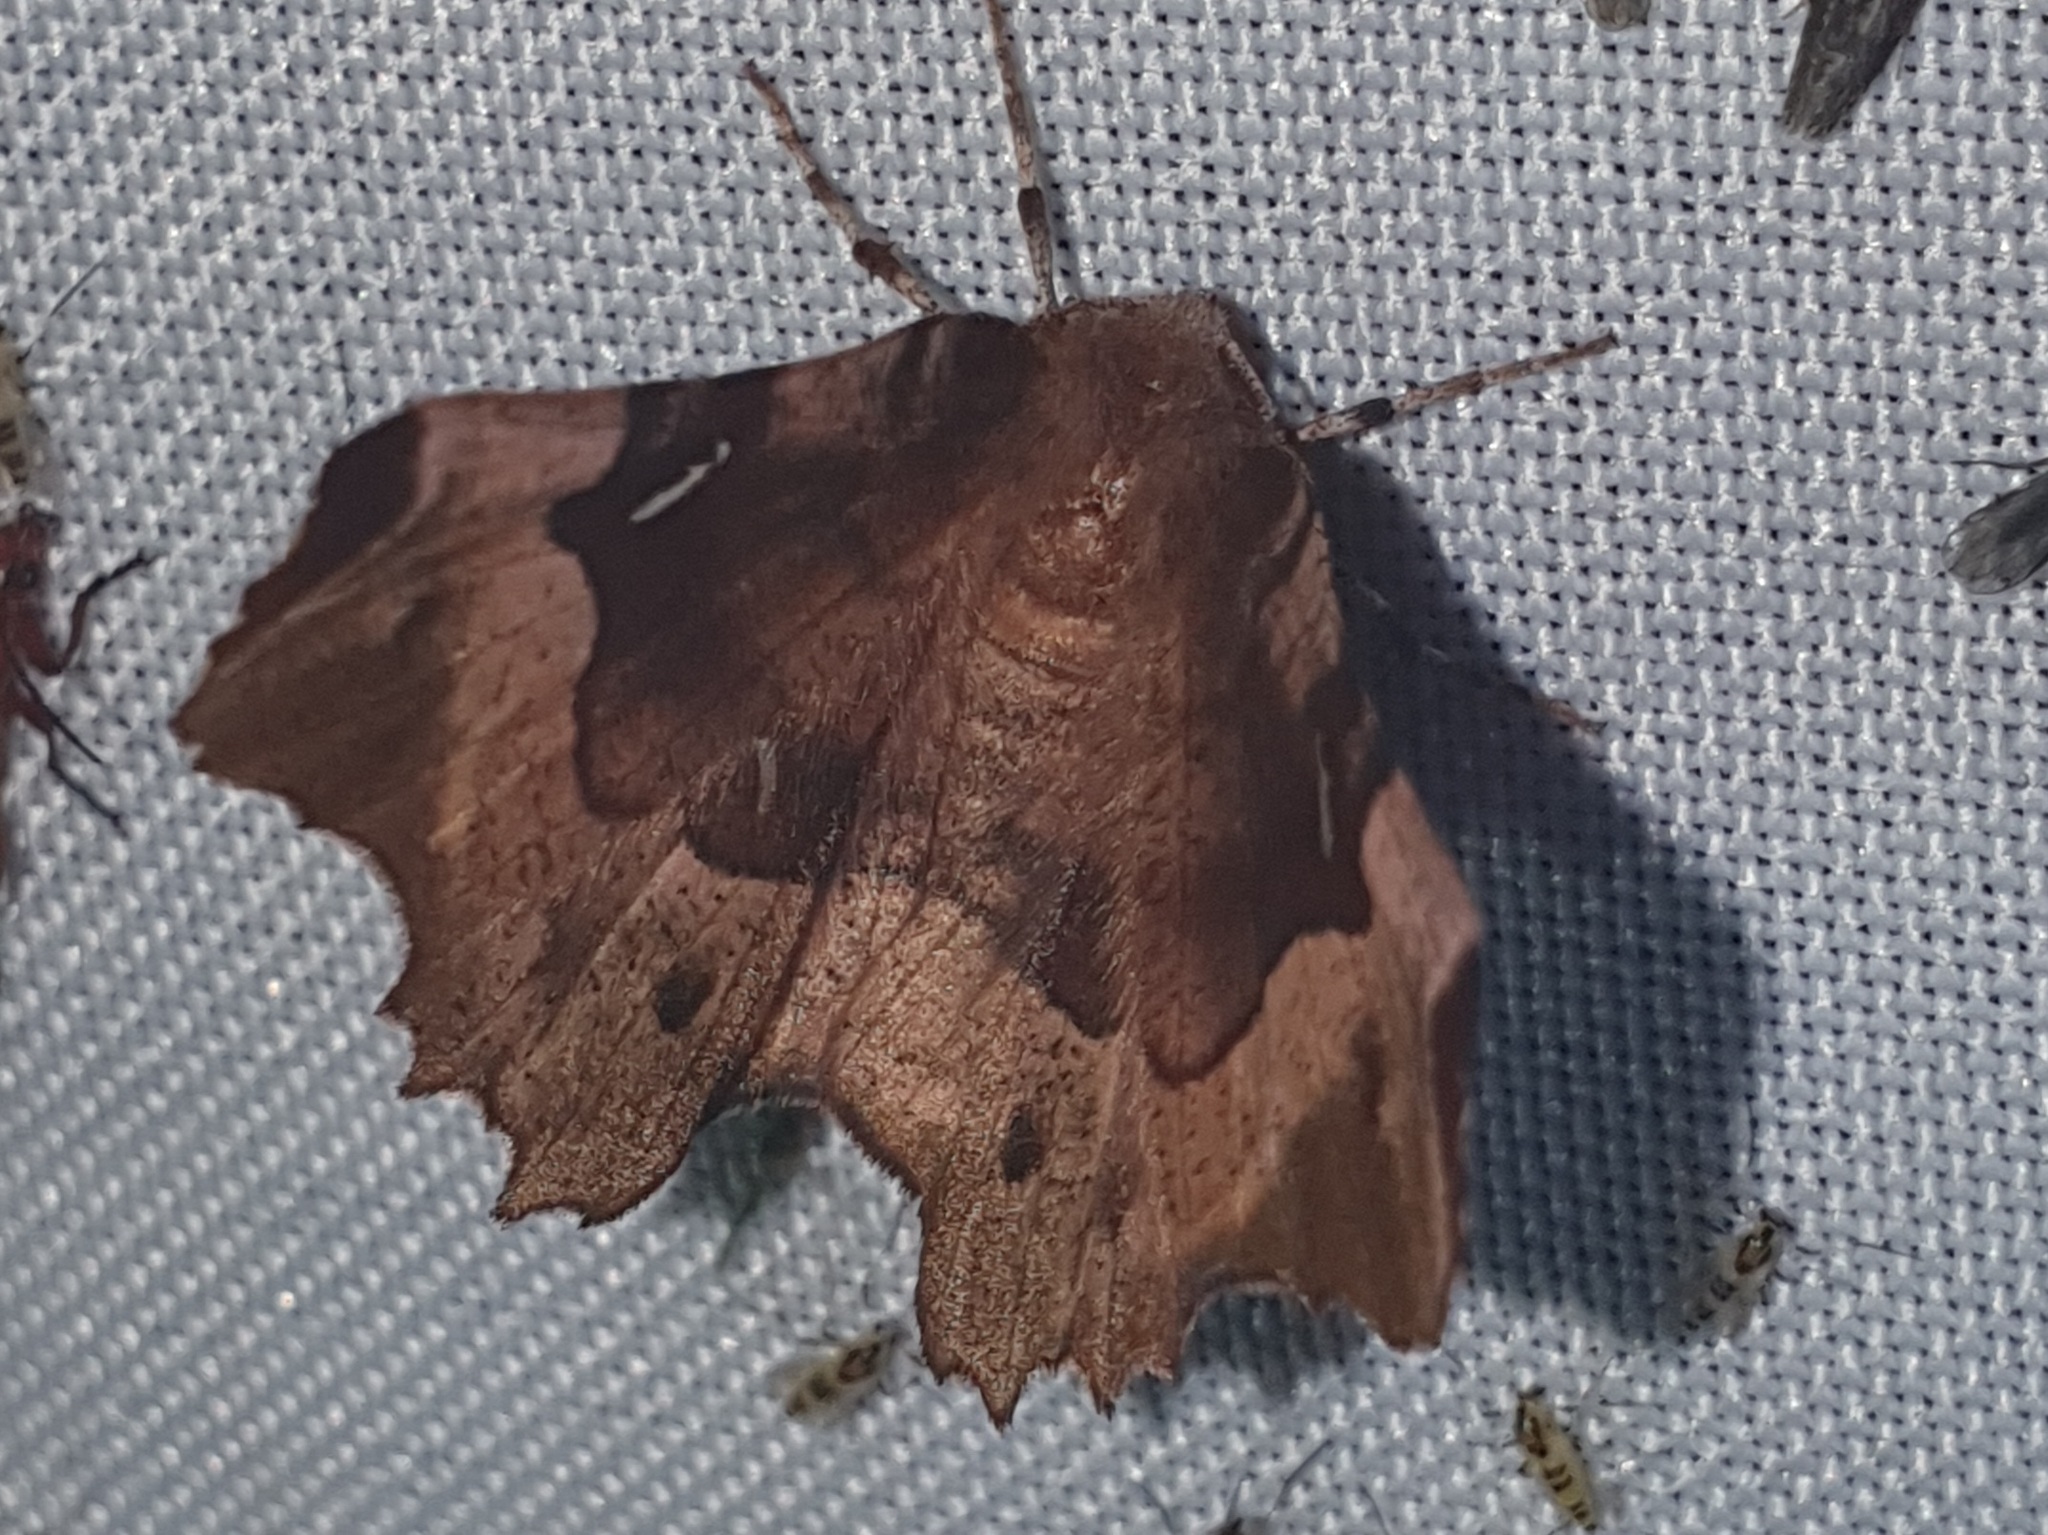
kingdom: Animalia
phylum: Arthropoda
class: Insecta
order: Lepidoptera
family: Geometridae
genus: Selenia
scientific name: Selenia tetralunaria
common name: Purple thorn
